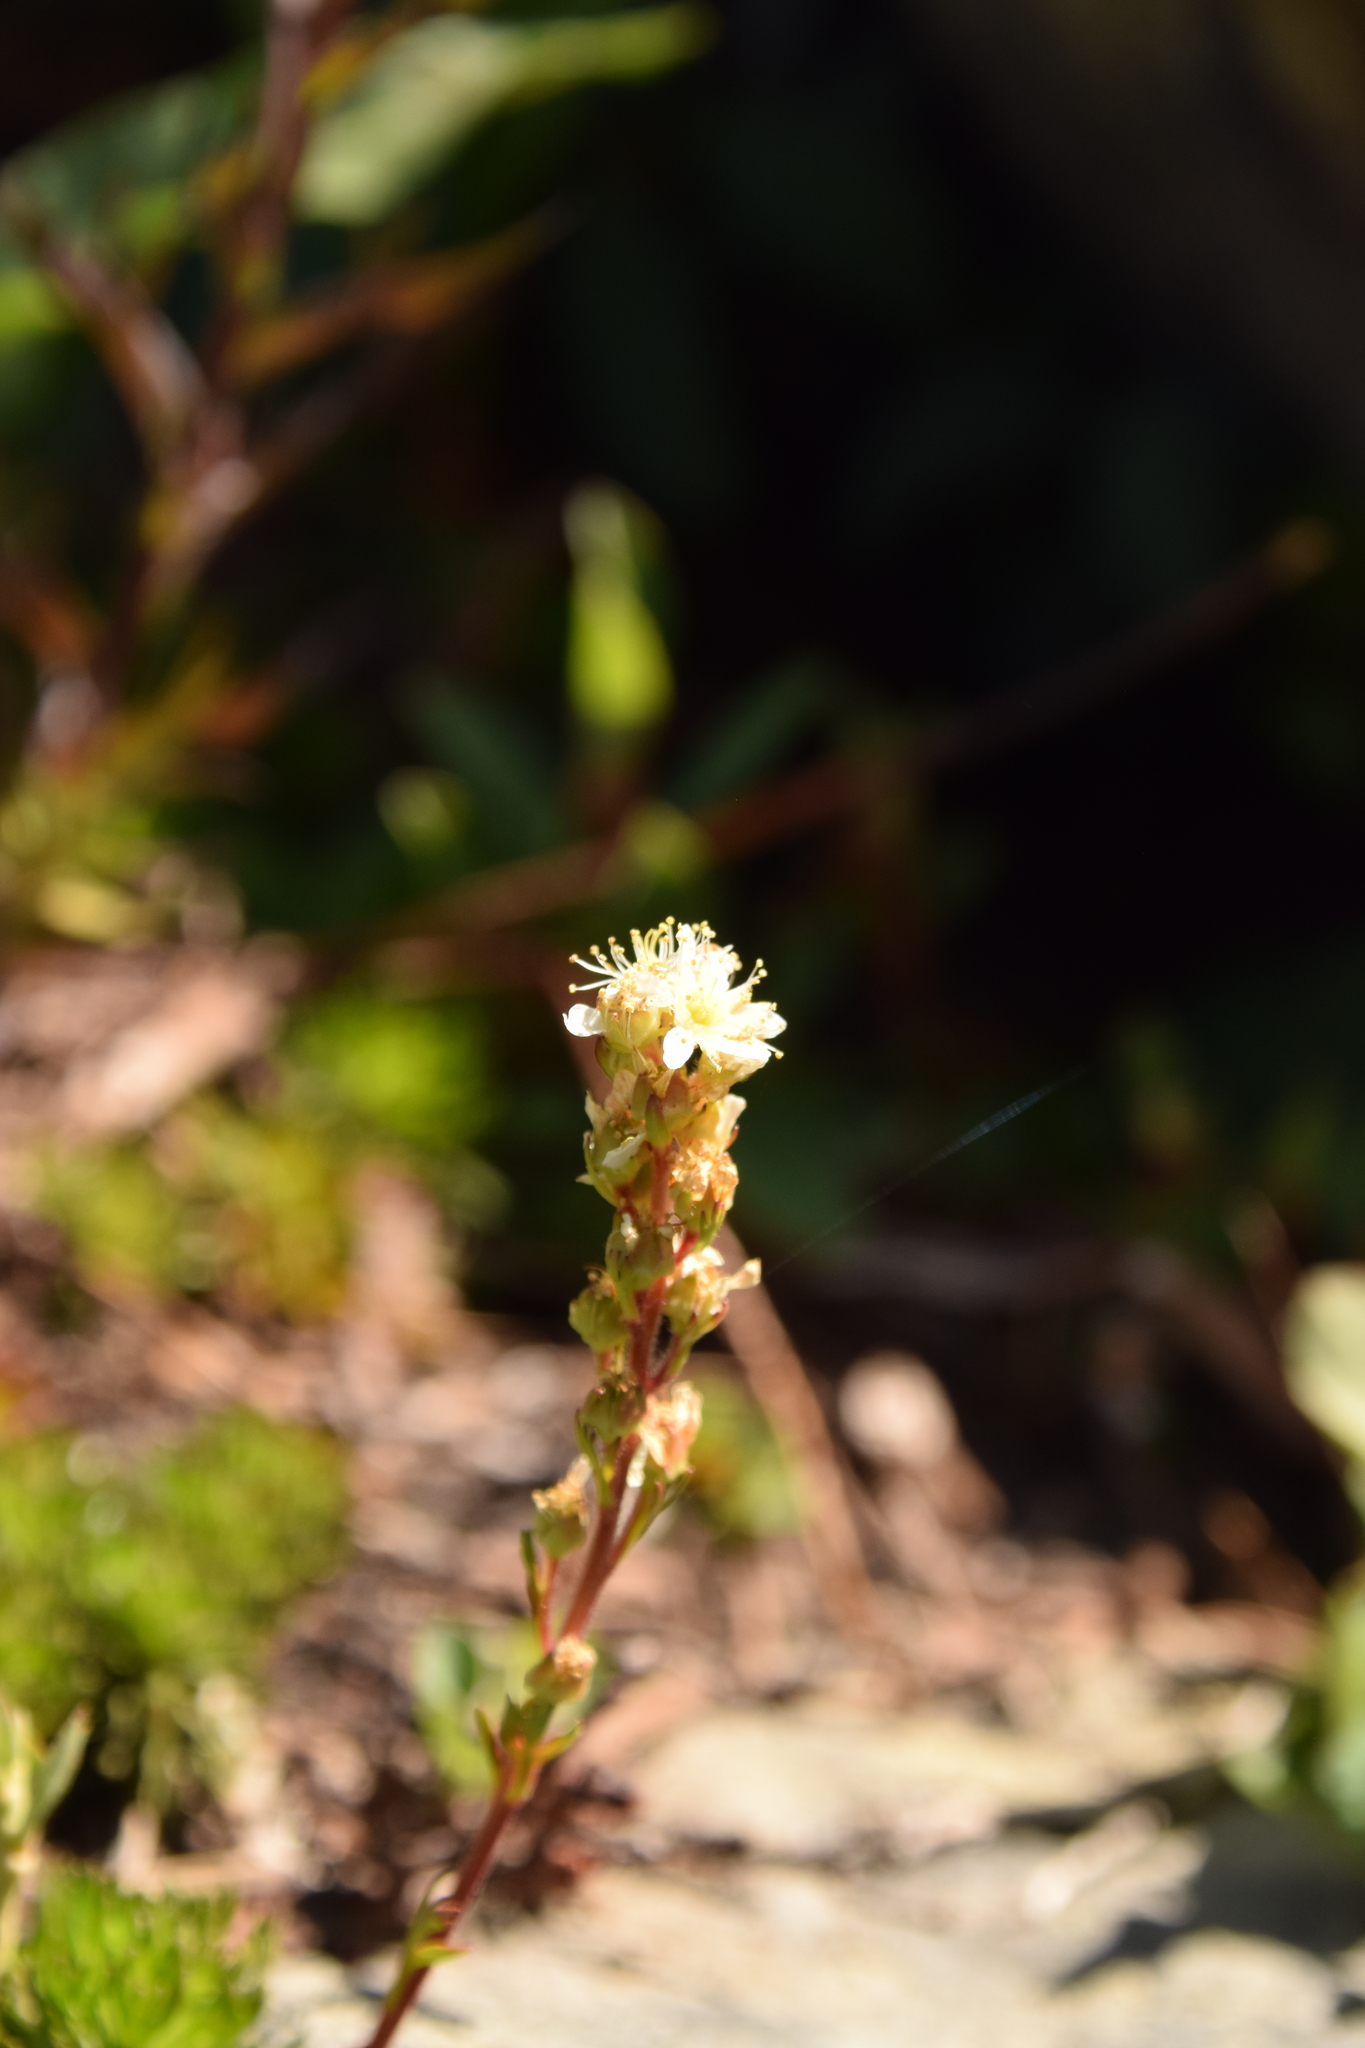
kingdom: Plantae
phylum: Tracheophyta
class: Magnoliopsida
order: Rosales
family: Rosaceae
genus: Luetkea
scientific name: Luetkea pectinata
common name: Partridgefoot
